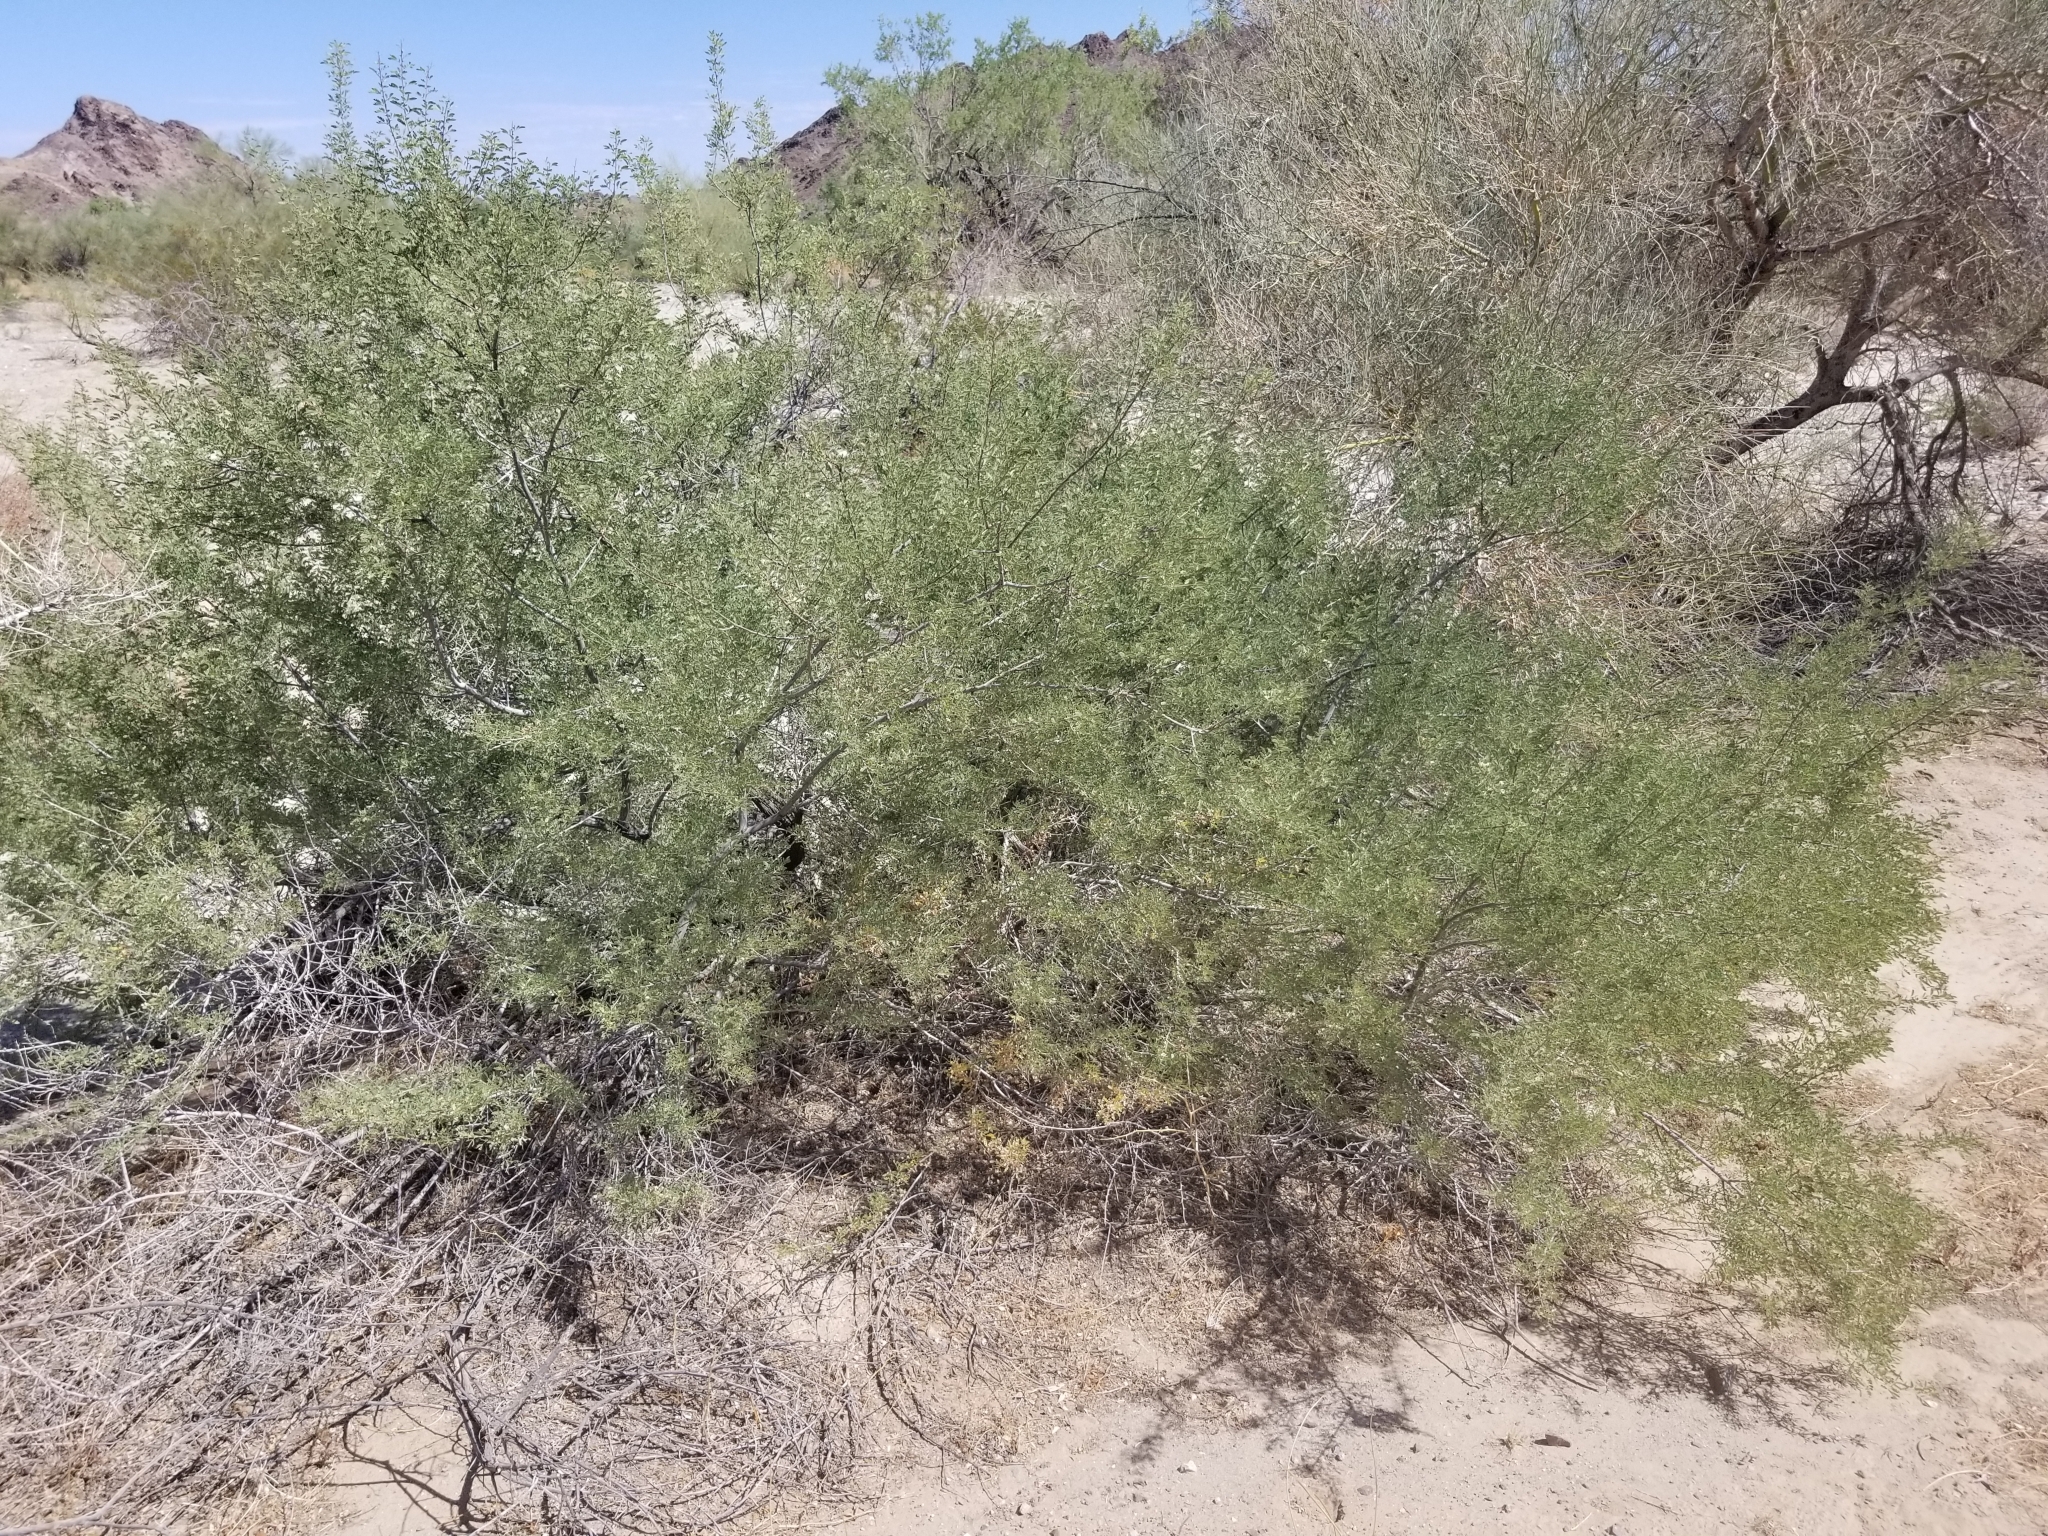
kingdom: Plantae
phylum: Tracheophyta
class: Magnoliopsida
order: Fabales
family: Fabaceae
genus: Senegalia
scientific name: Senegalia greggii
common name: Texas-mimosa
